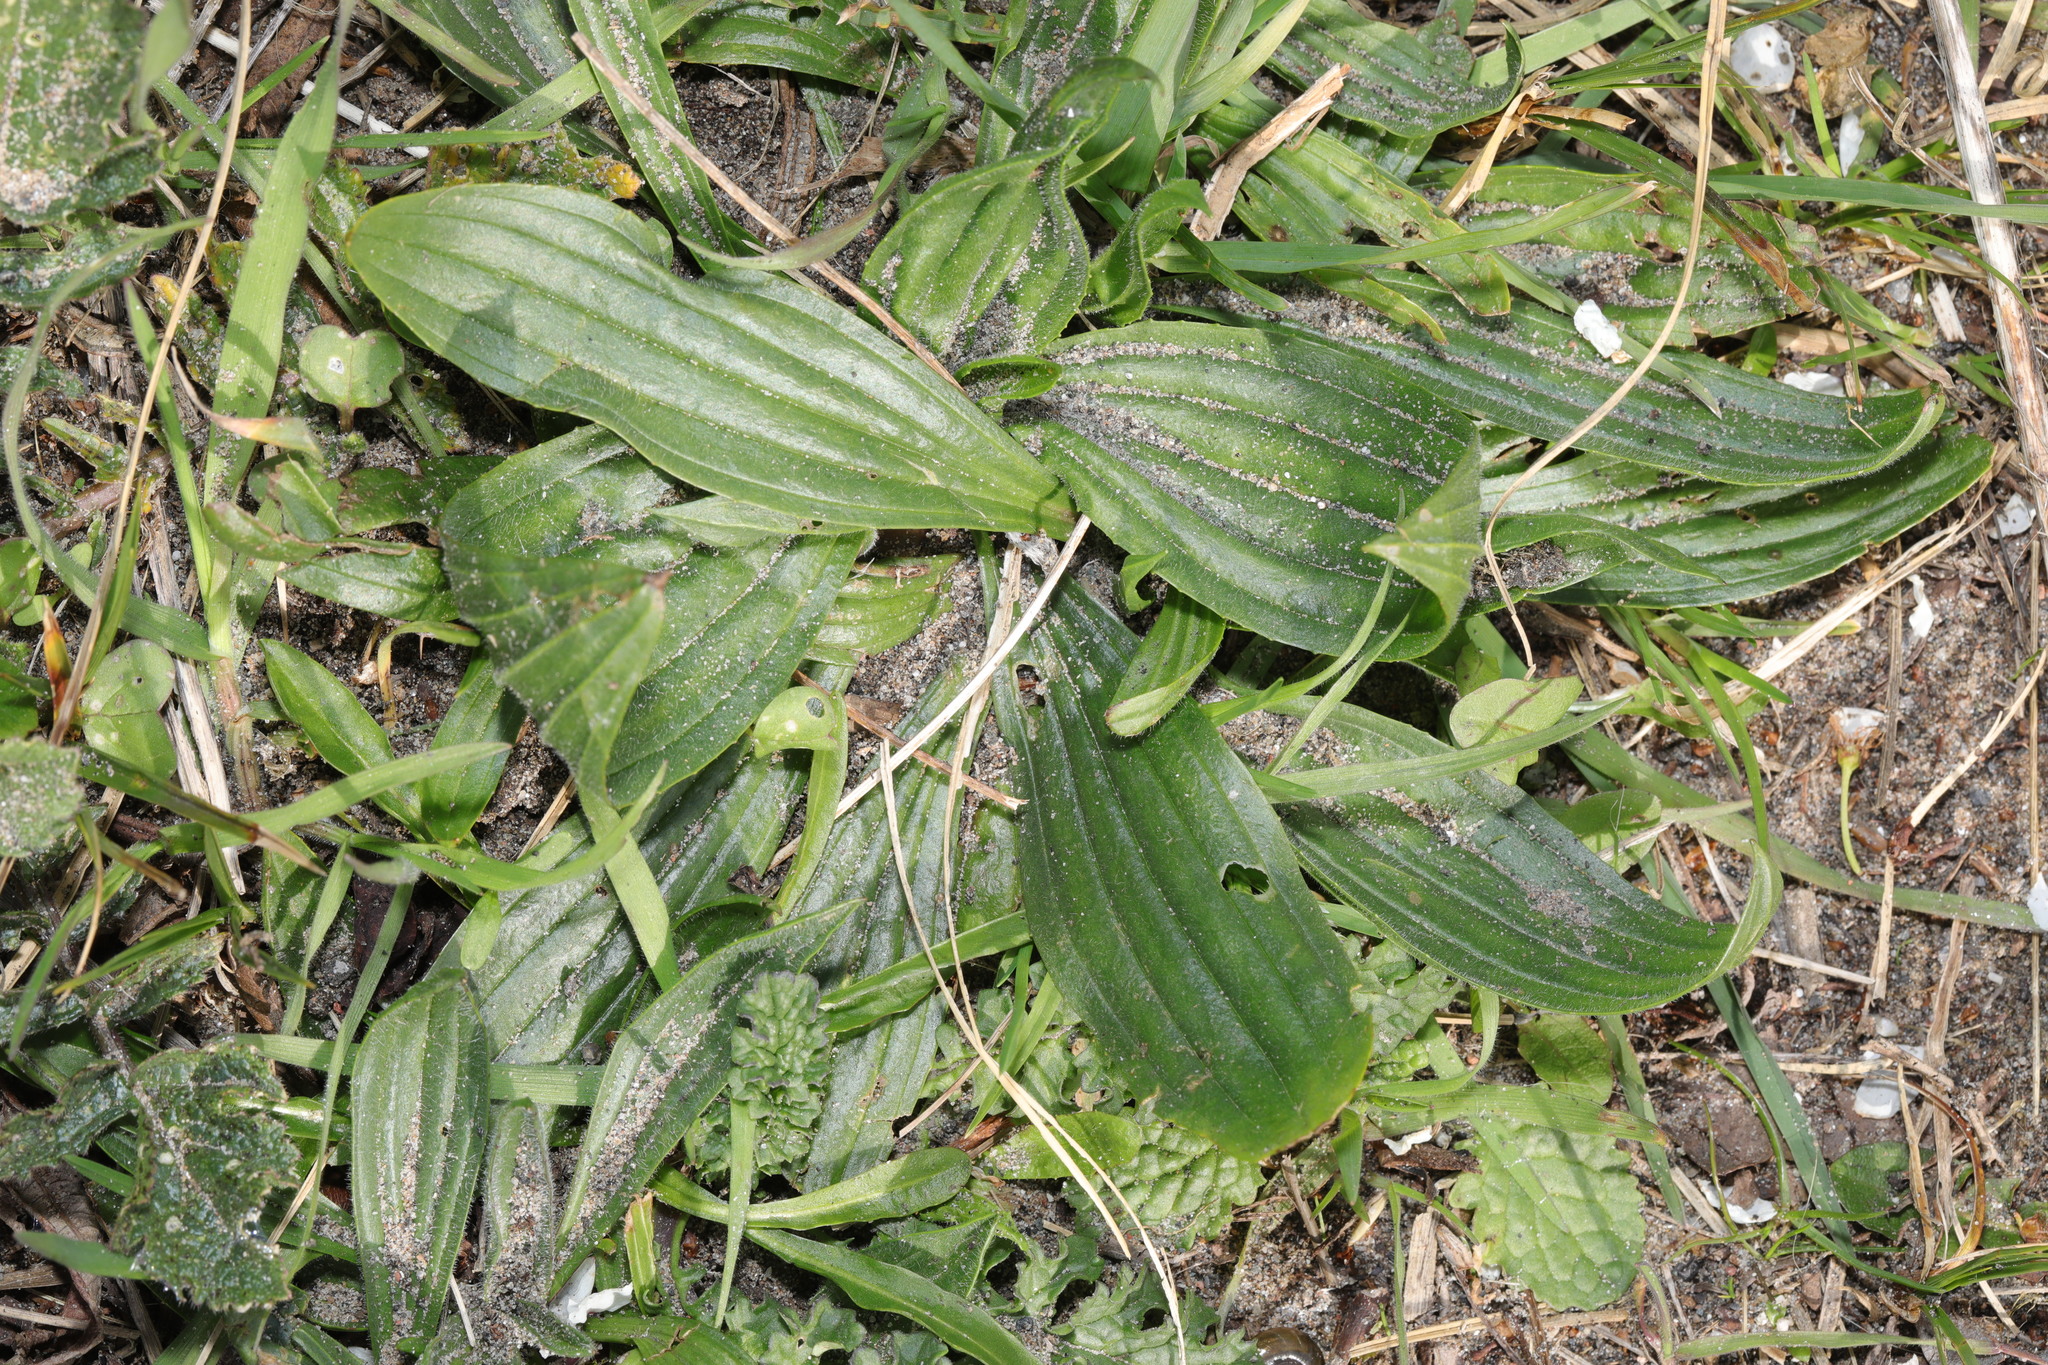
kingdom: Plantae
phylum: Tracheophyta
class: Magnoliopsida
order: Lamiales
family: Plantaginaceae
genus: Plantago
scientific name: Plantago lanceolata
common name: Ribwort plantain
